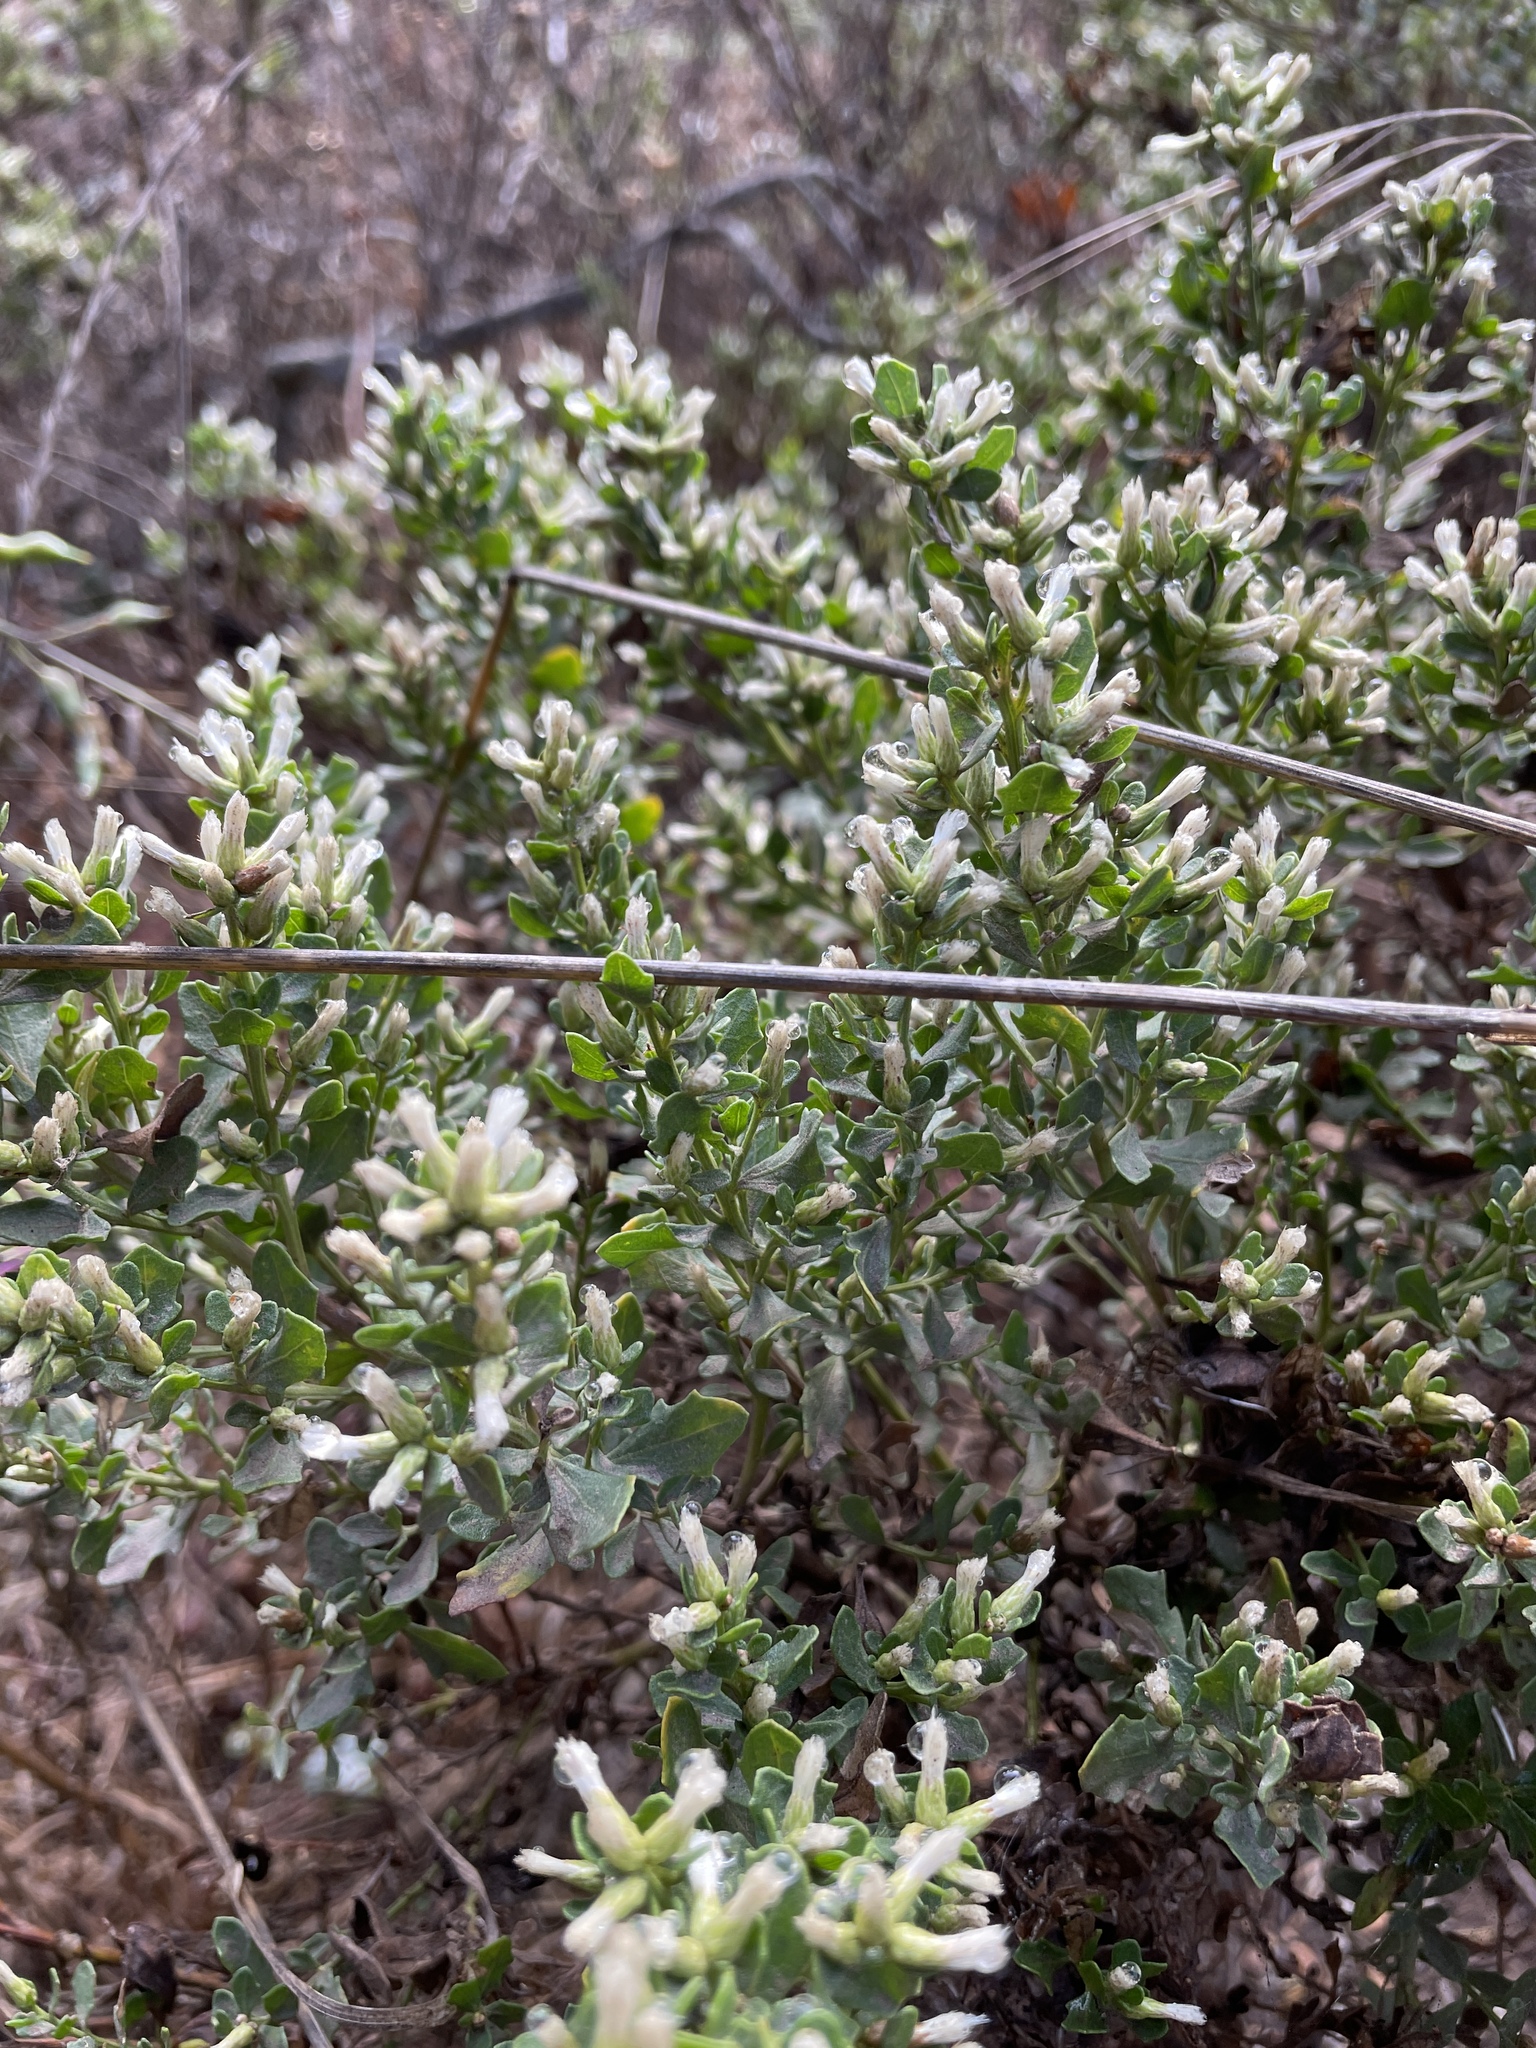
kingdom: Plantae
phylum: Tracheophyta
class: Magnoliopsida
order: Asterales
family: Asteraceae
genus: Baccharis
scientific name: Baccharis pilularis
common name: Coyotebrush
